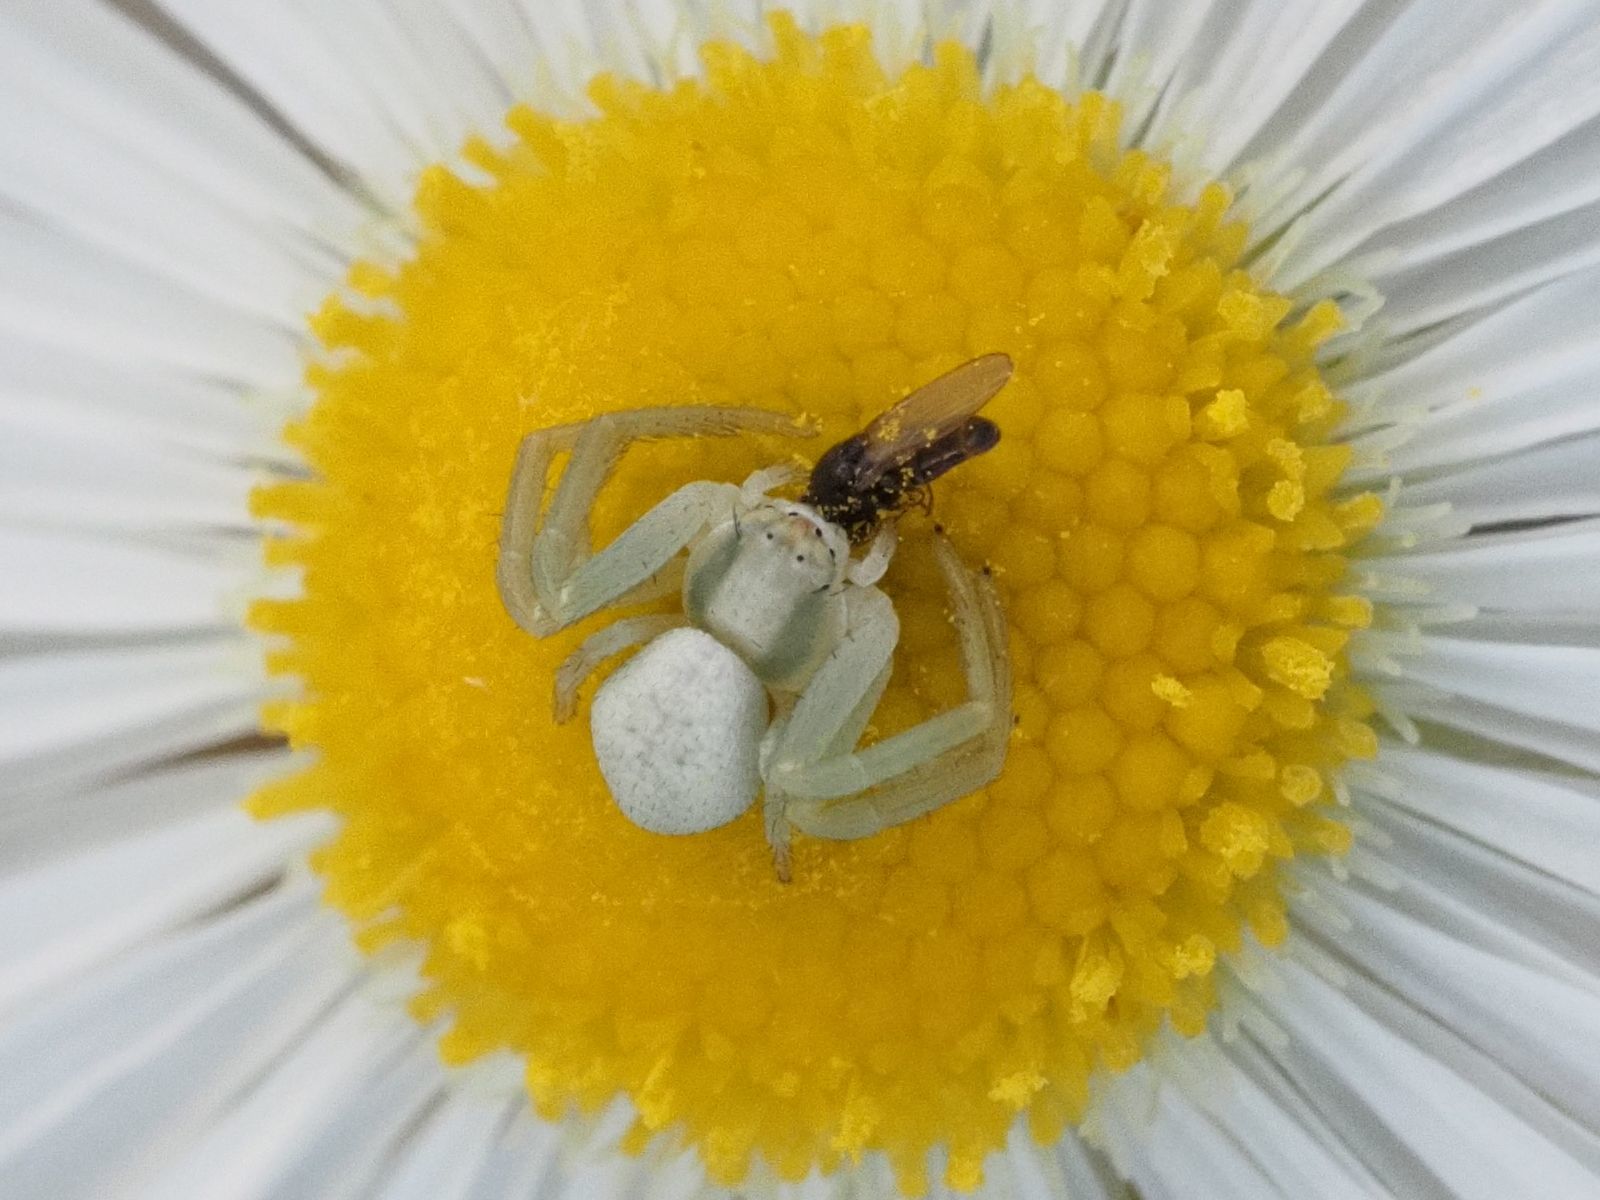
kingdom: Animalia
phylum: Arthropoda
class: Arachnida
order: Araneae
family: Thomisidae
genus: Misumena
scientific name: Misumena vatia
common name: Goldenrod crab spider
